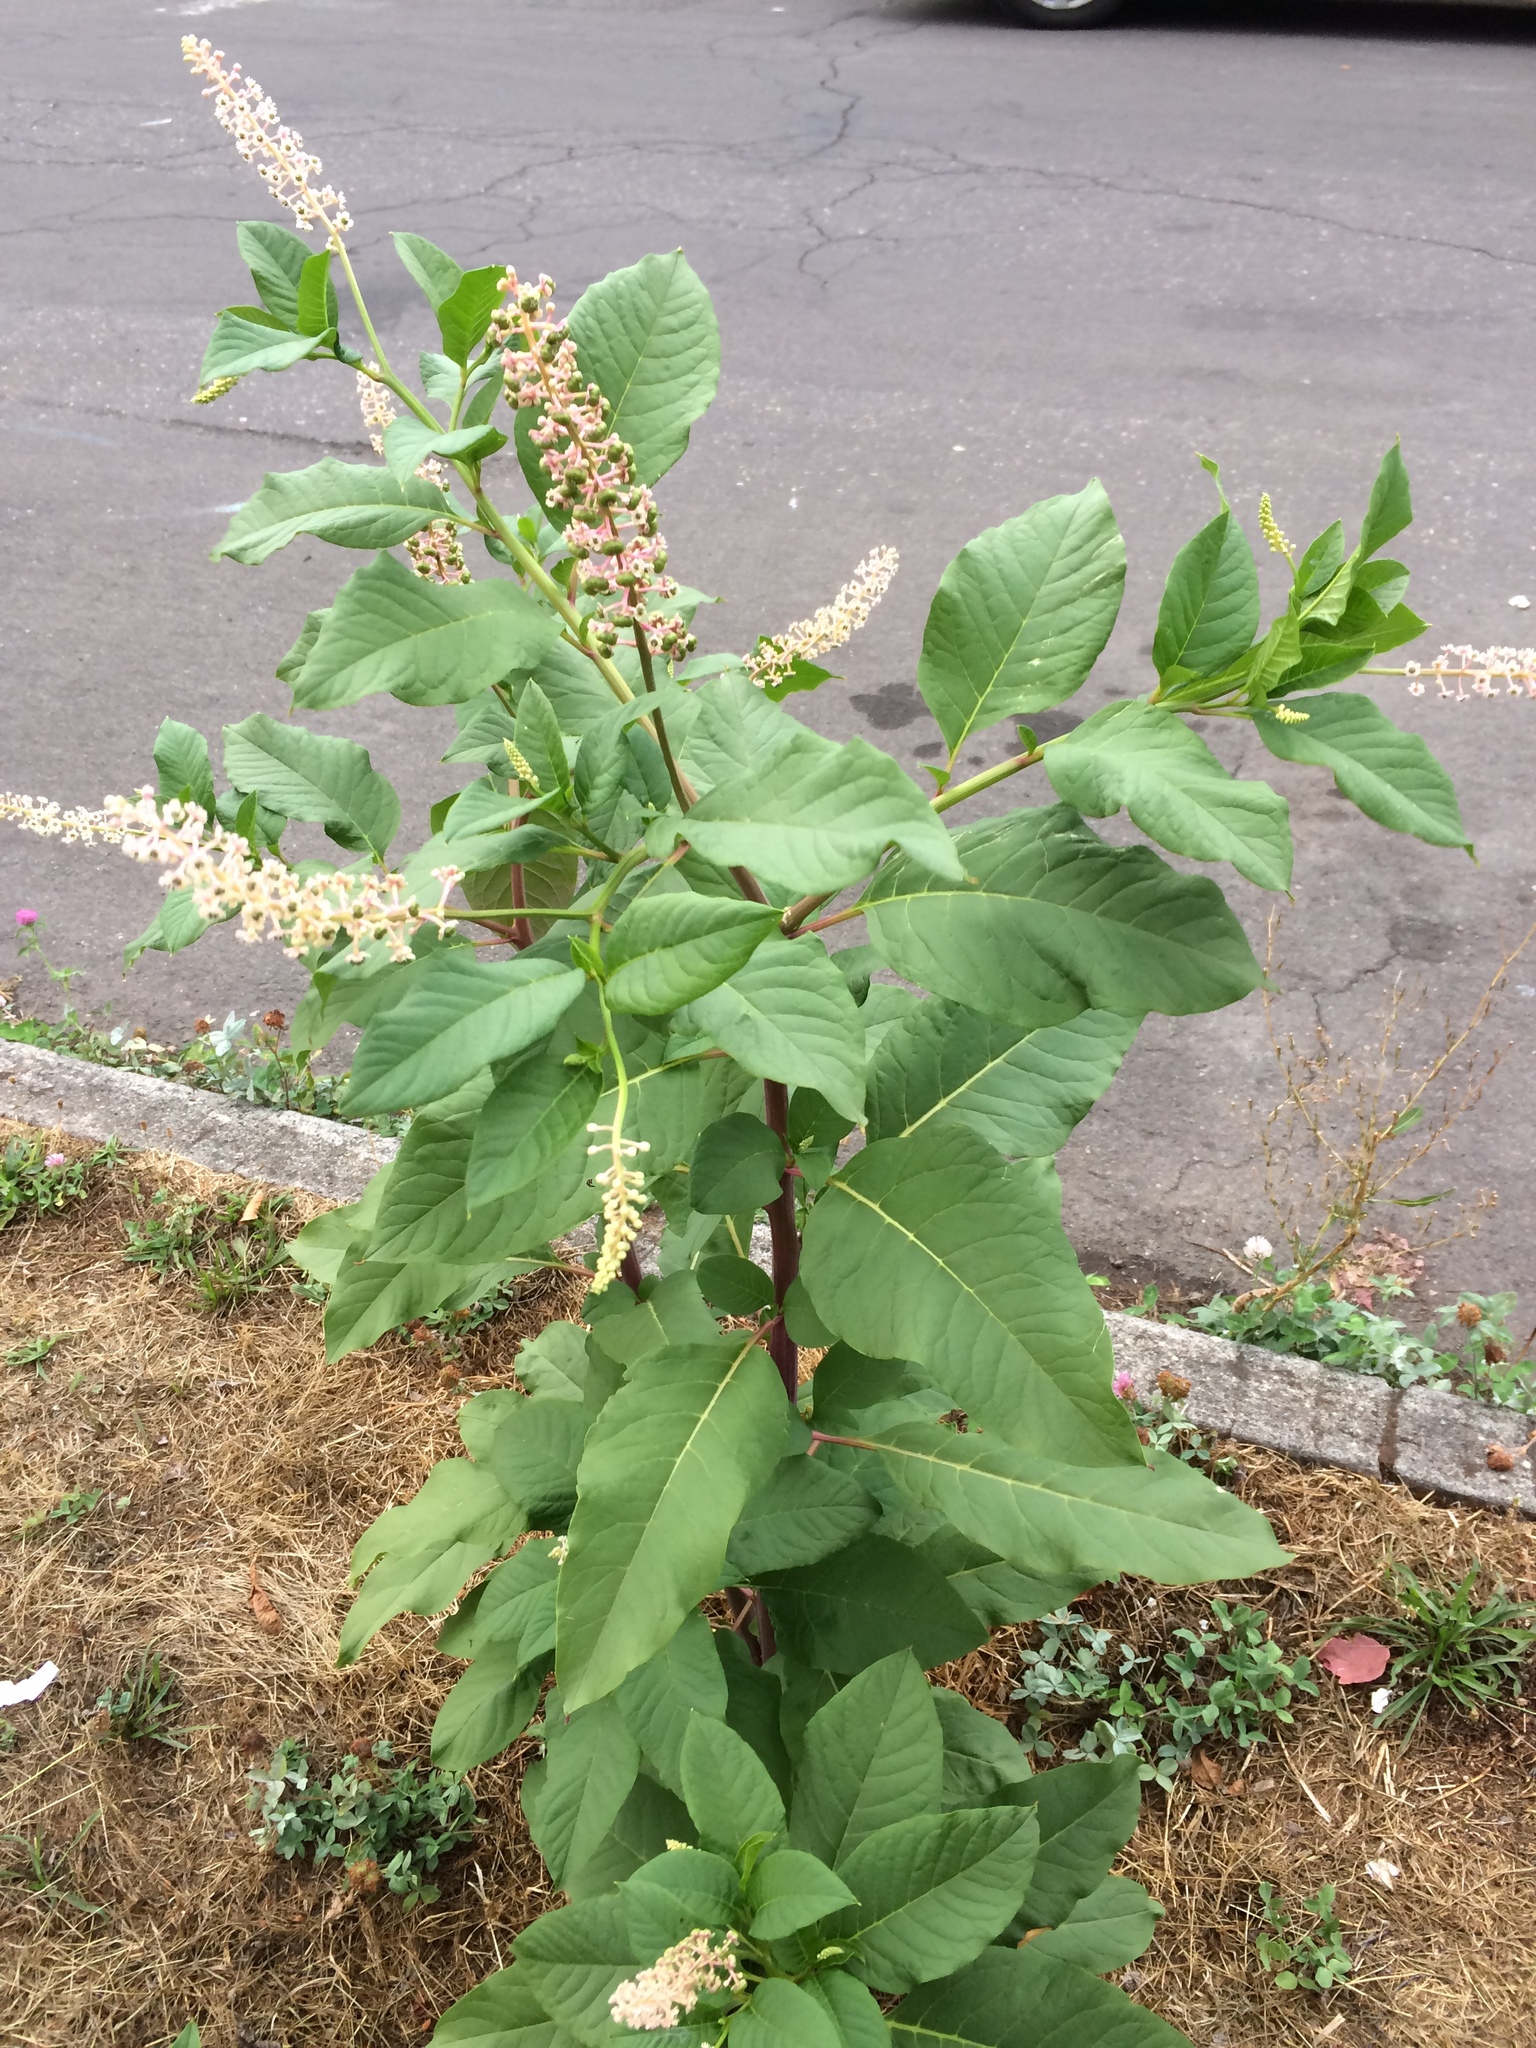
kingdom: Plantae
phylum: Tracheophyta
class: Magnoliopsida
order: Caryophyllales
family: Phytolaccaceae
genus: Phytolacca
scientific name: Phytolacca americana
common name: American pokeweed
